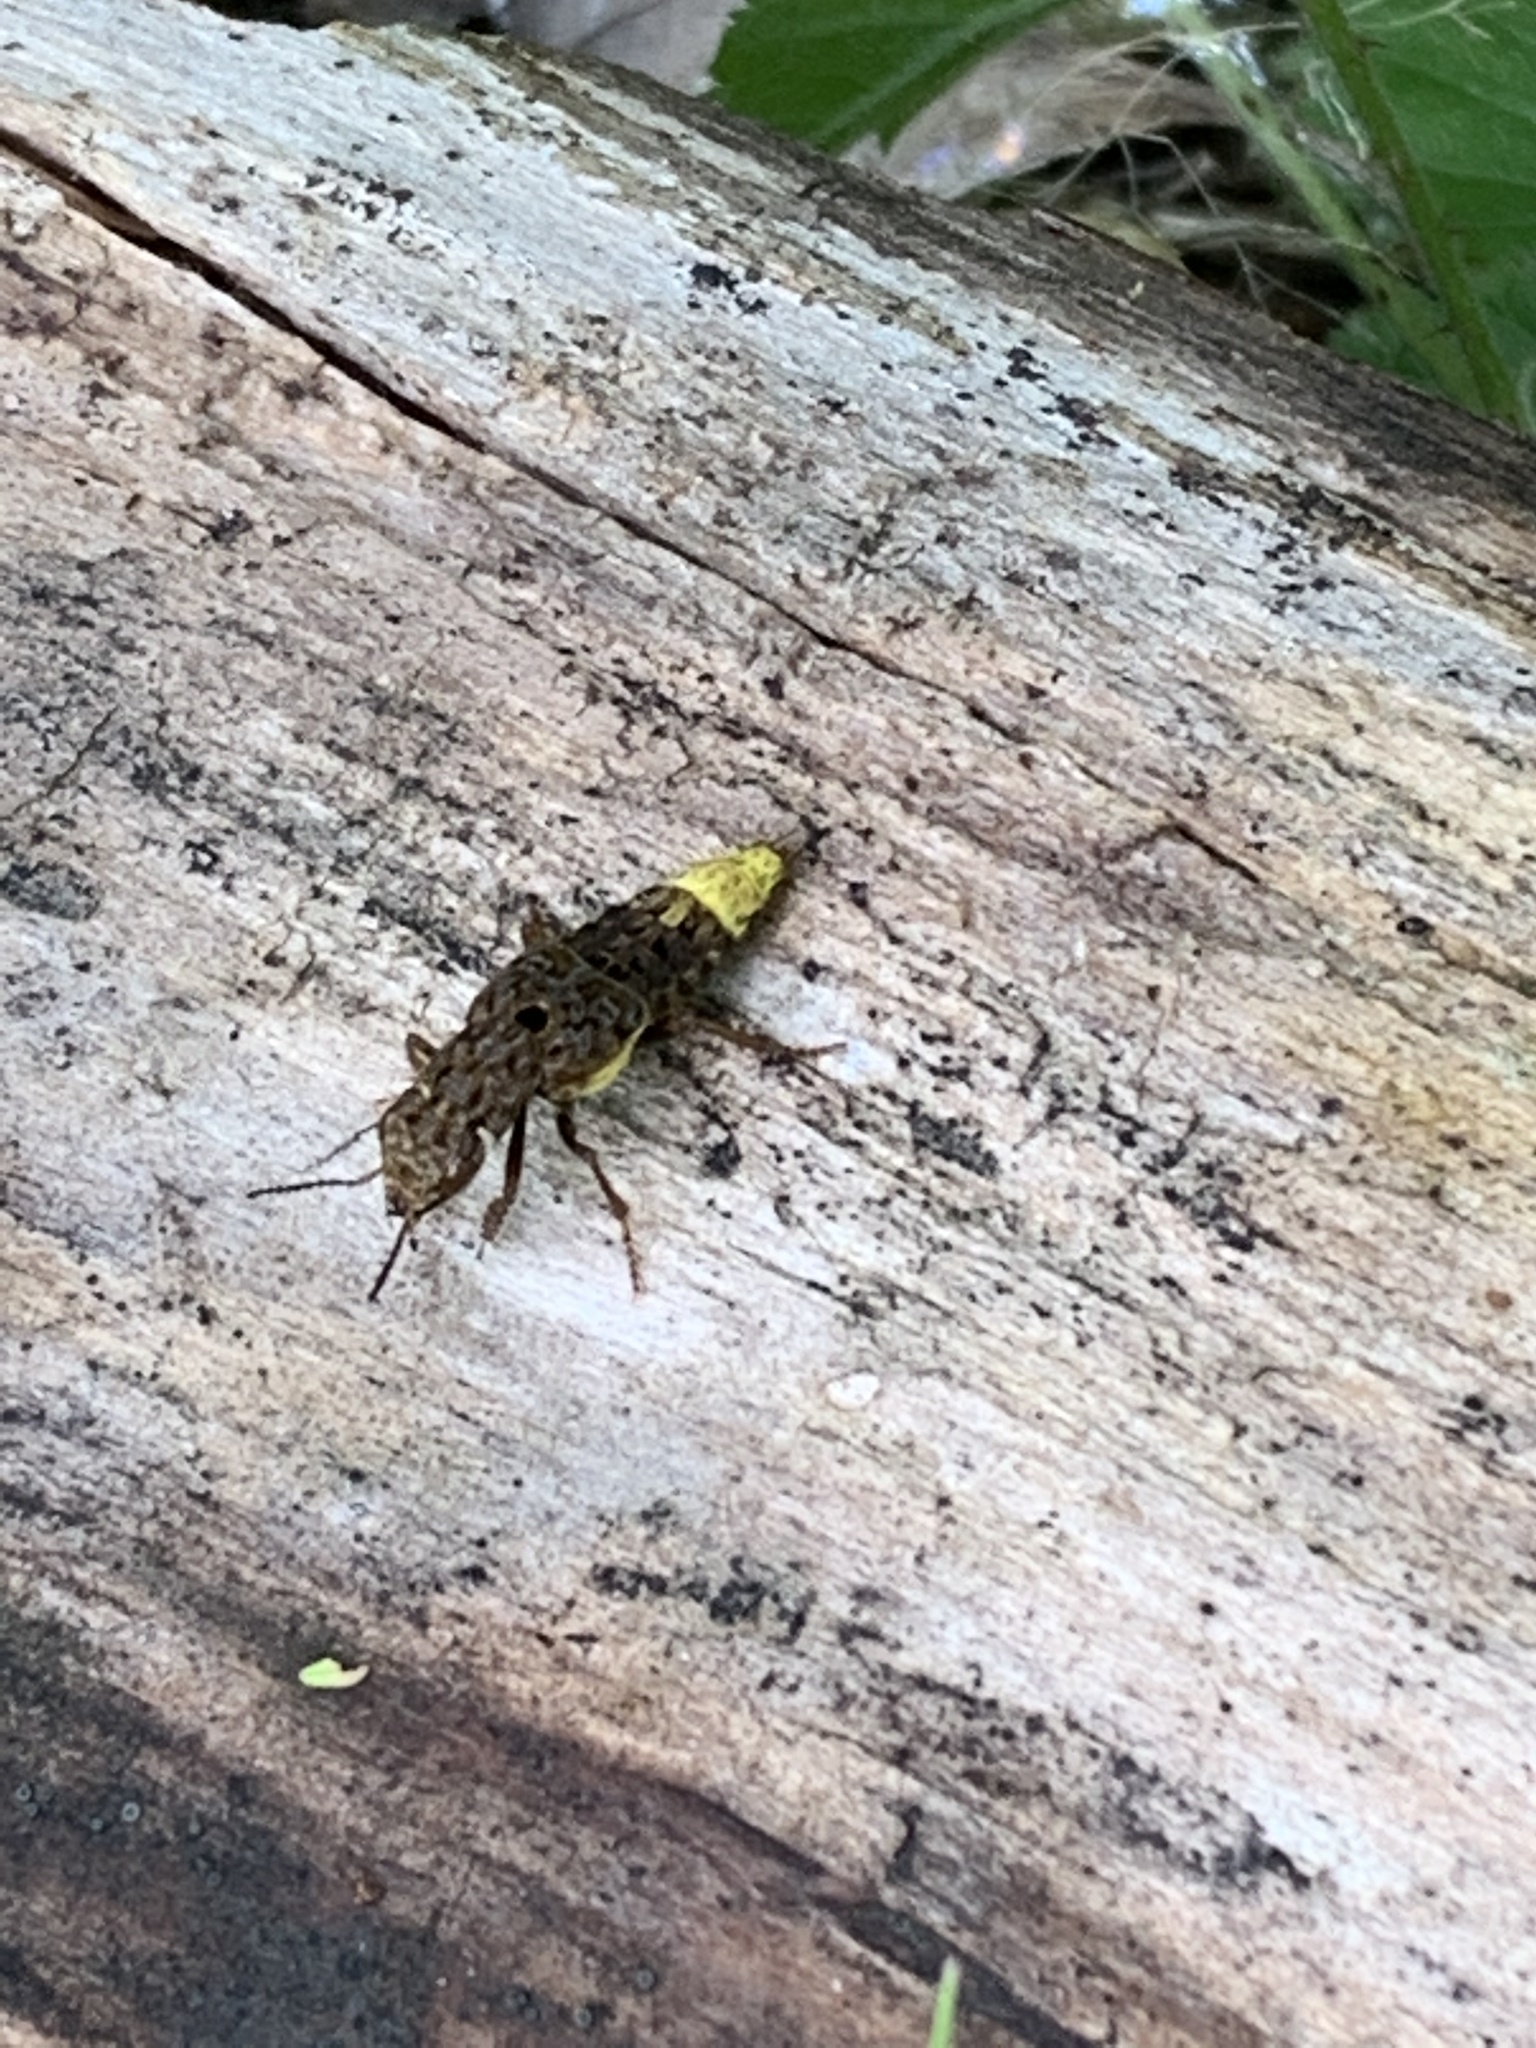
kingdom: Animalia
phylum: Arthropoda
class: Insecta
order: Coleoptera
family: Staphylinidae
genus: Ontholestes
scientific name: Ontholestes cingulatus
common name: Gold-and-brown rove beetle
